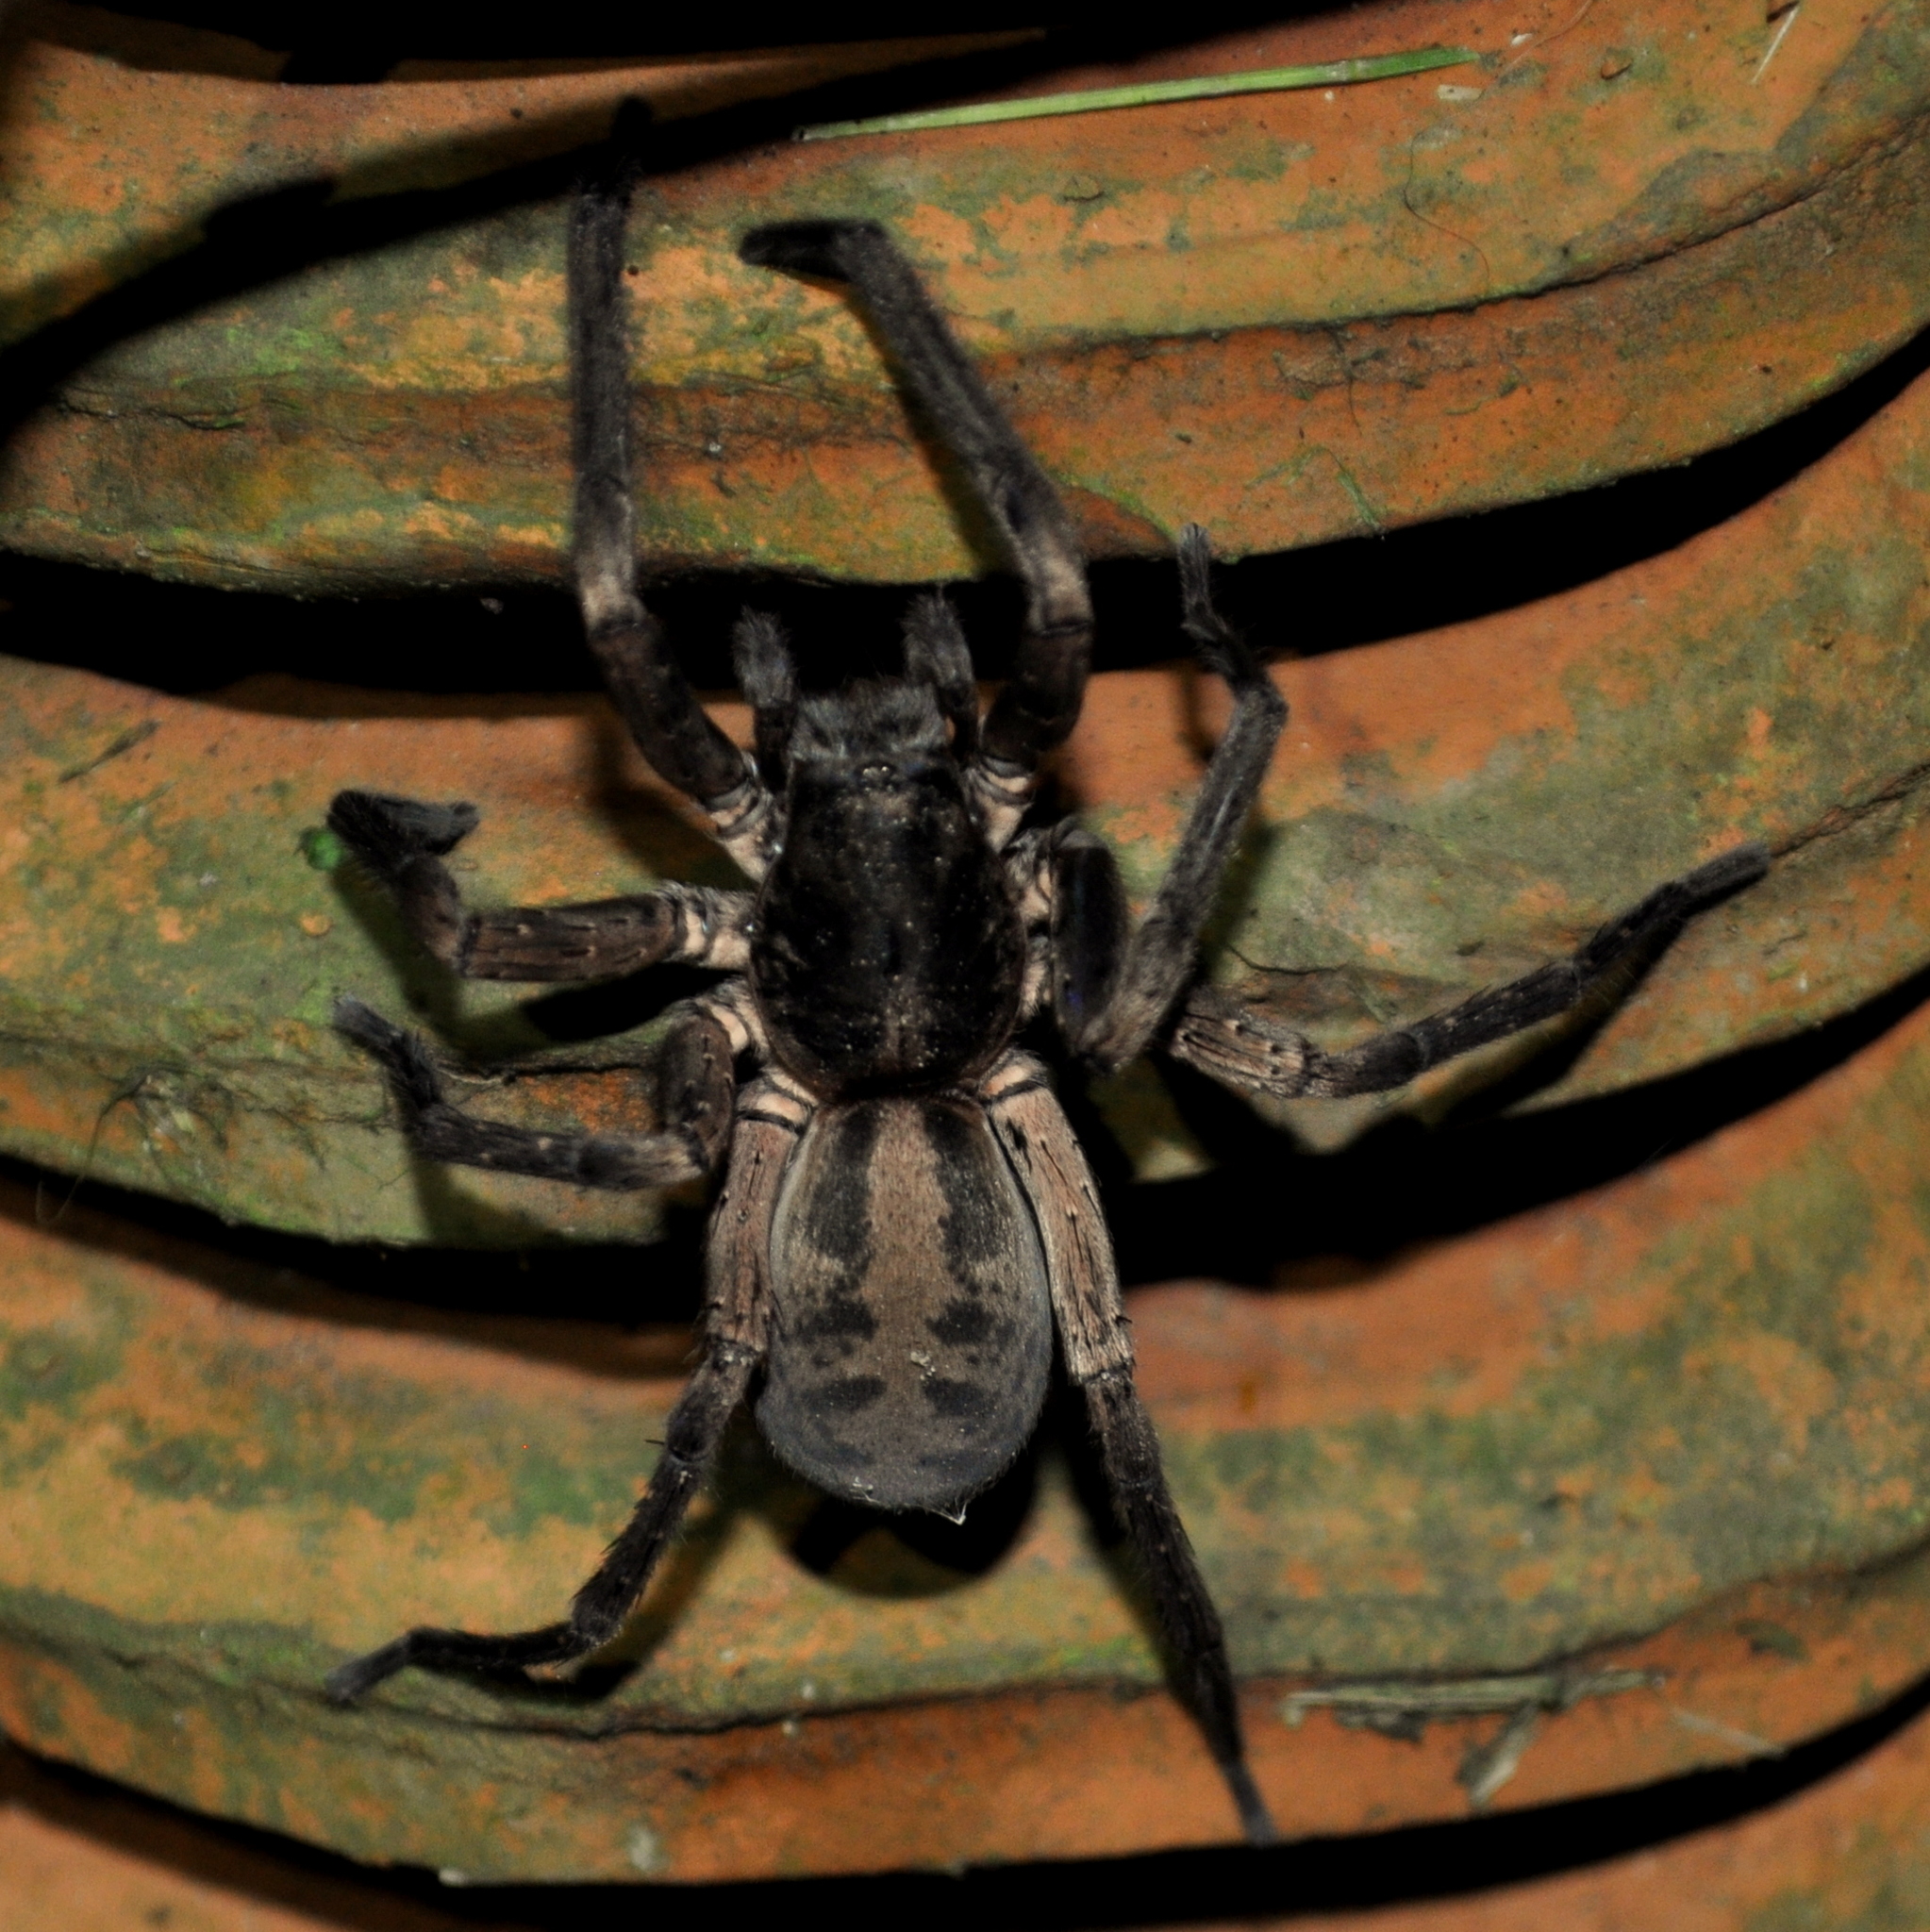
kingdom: Animalia
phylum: Arthropoda
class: Arachnida
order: Araneae
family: Ctenidae
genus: Guasuctenus
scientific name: Guasuctenus longipes
